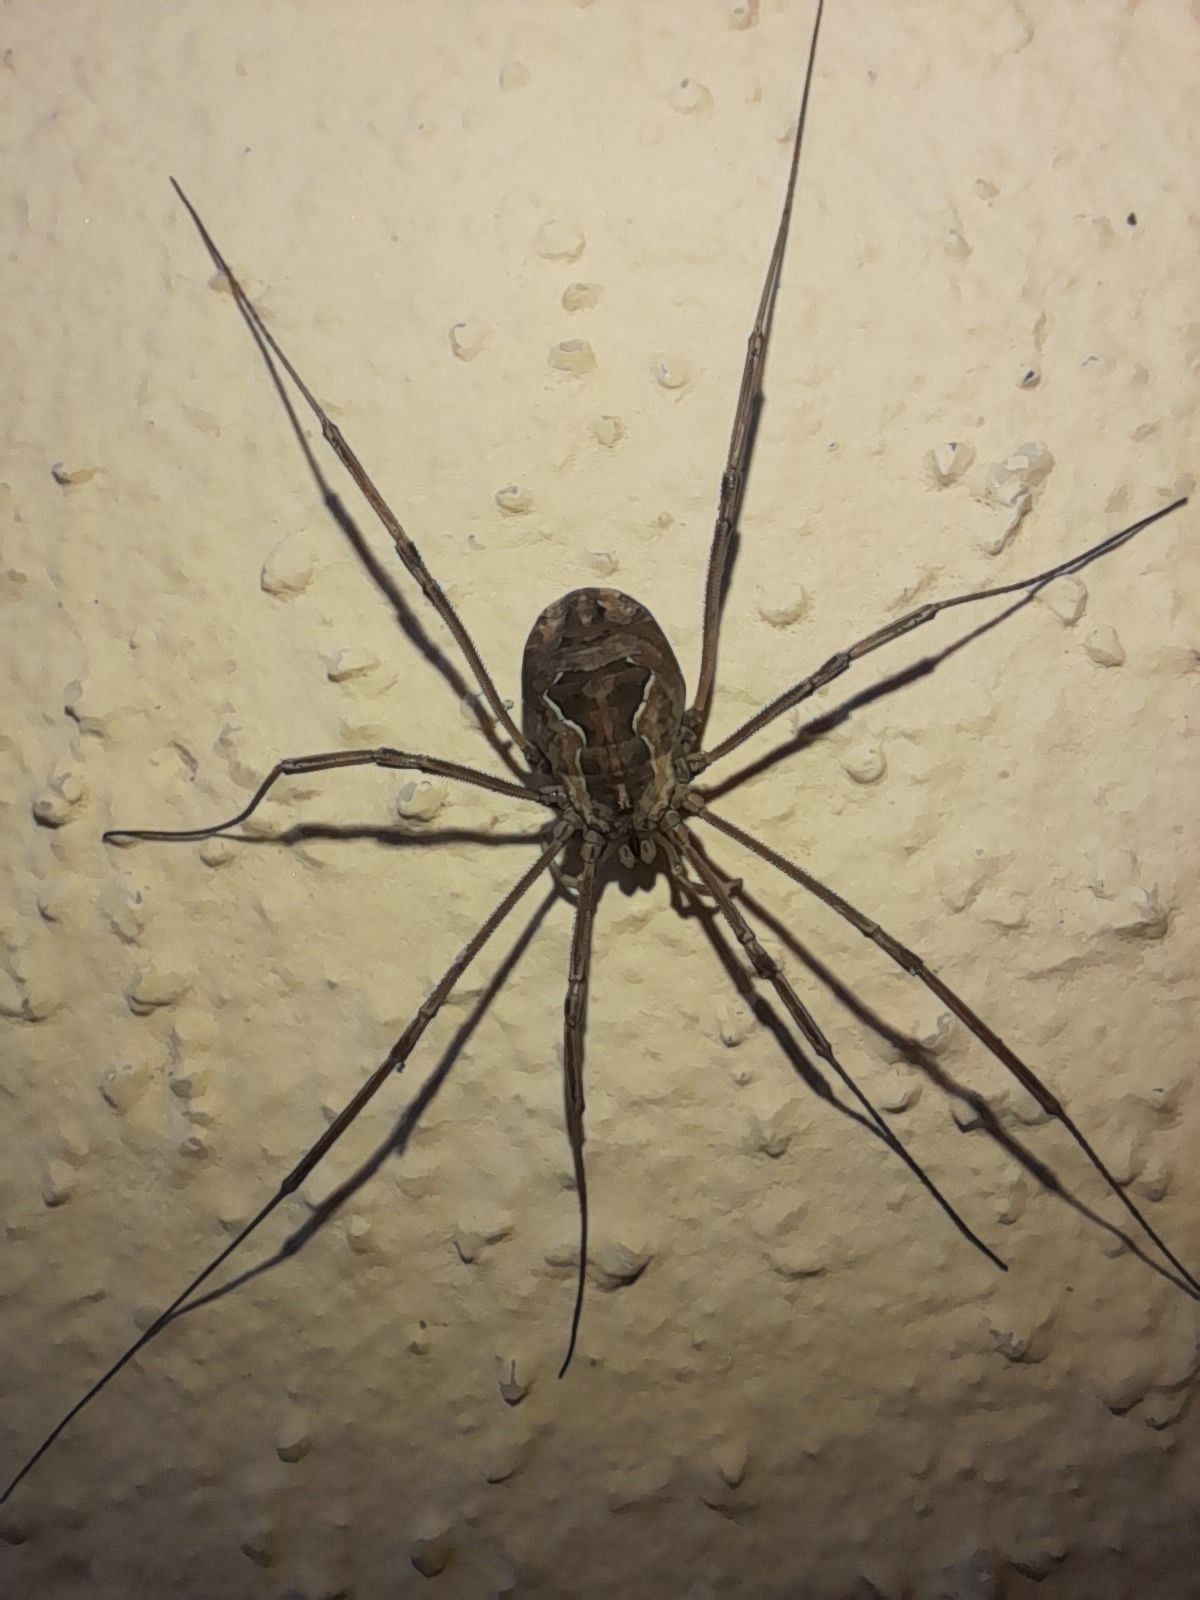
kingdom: Animalia
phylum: Arthropoda
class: Arachnida
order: Opiliones
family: Phalangiidae
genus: Metaphalangium
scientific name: Metaphalangium cirtanum
